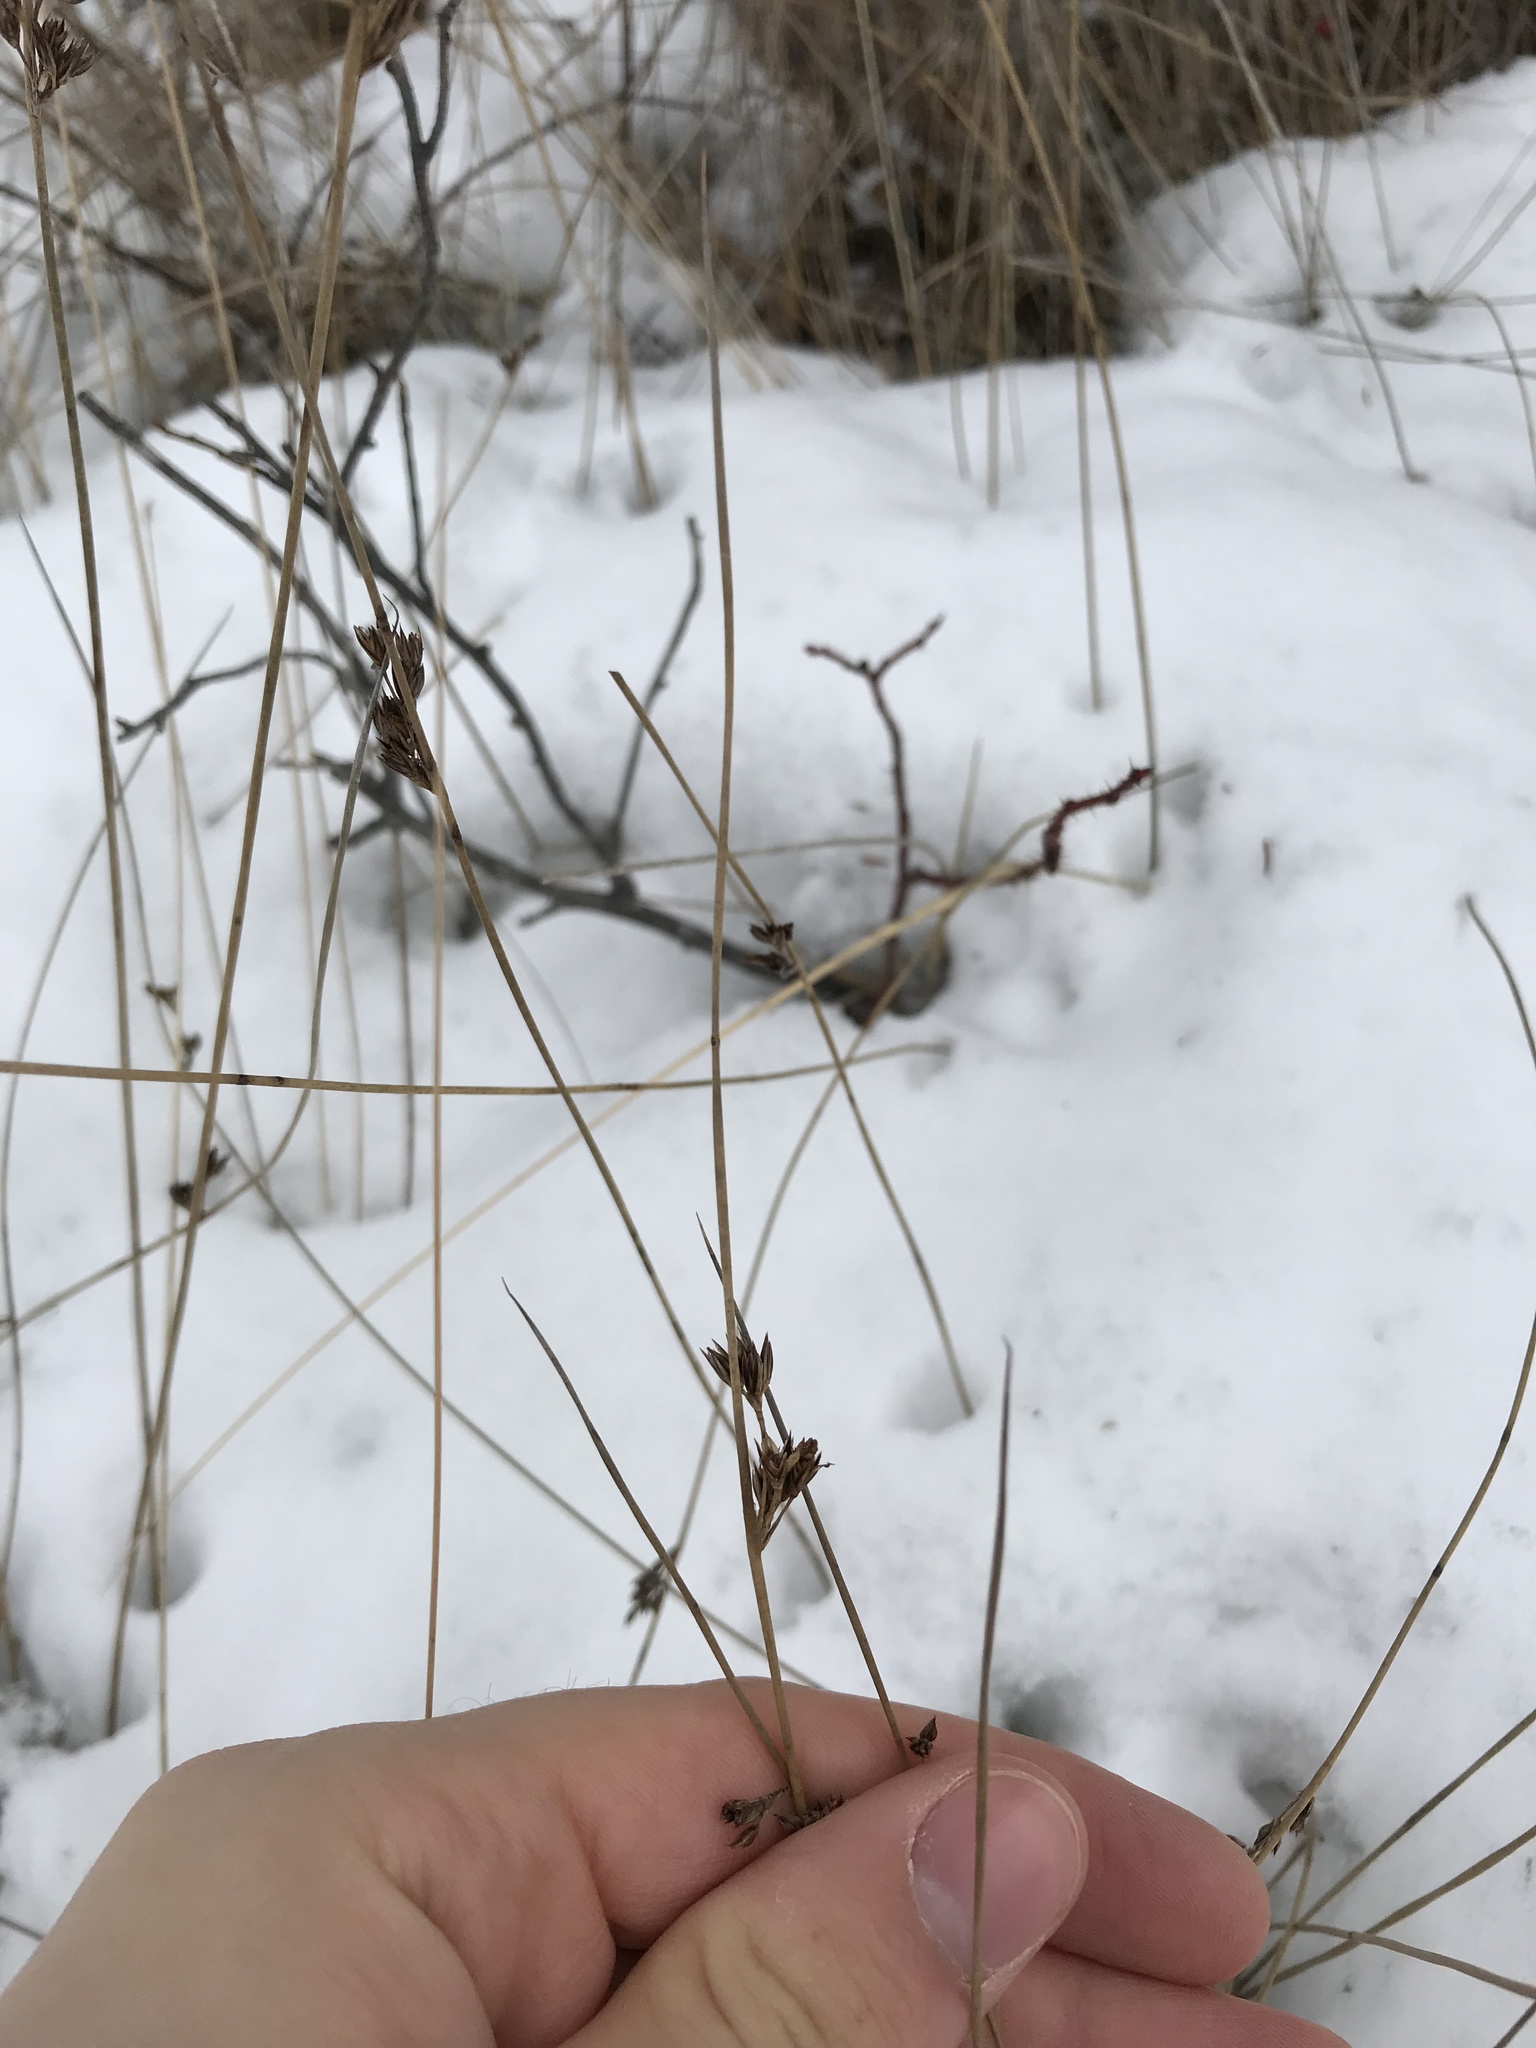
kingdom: Plantae
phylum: Tracheophyta
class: Liliopsida
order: Poales
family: Juncaceae
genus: Juncus
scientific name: Juncus balticus
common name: Baltic rush
